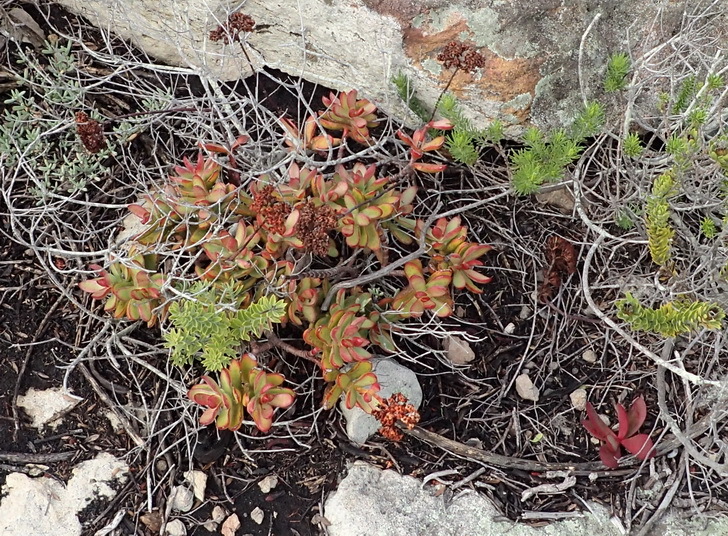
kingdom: Plantae
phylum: Tracheophyta
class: Magnoliopsida
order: Saxifragales
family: Crassulaceae
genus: Crassula
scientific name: Crassula rubricaulis
